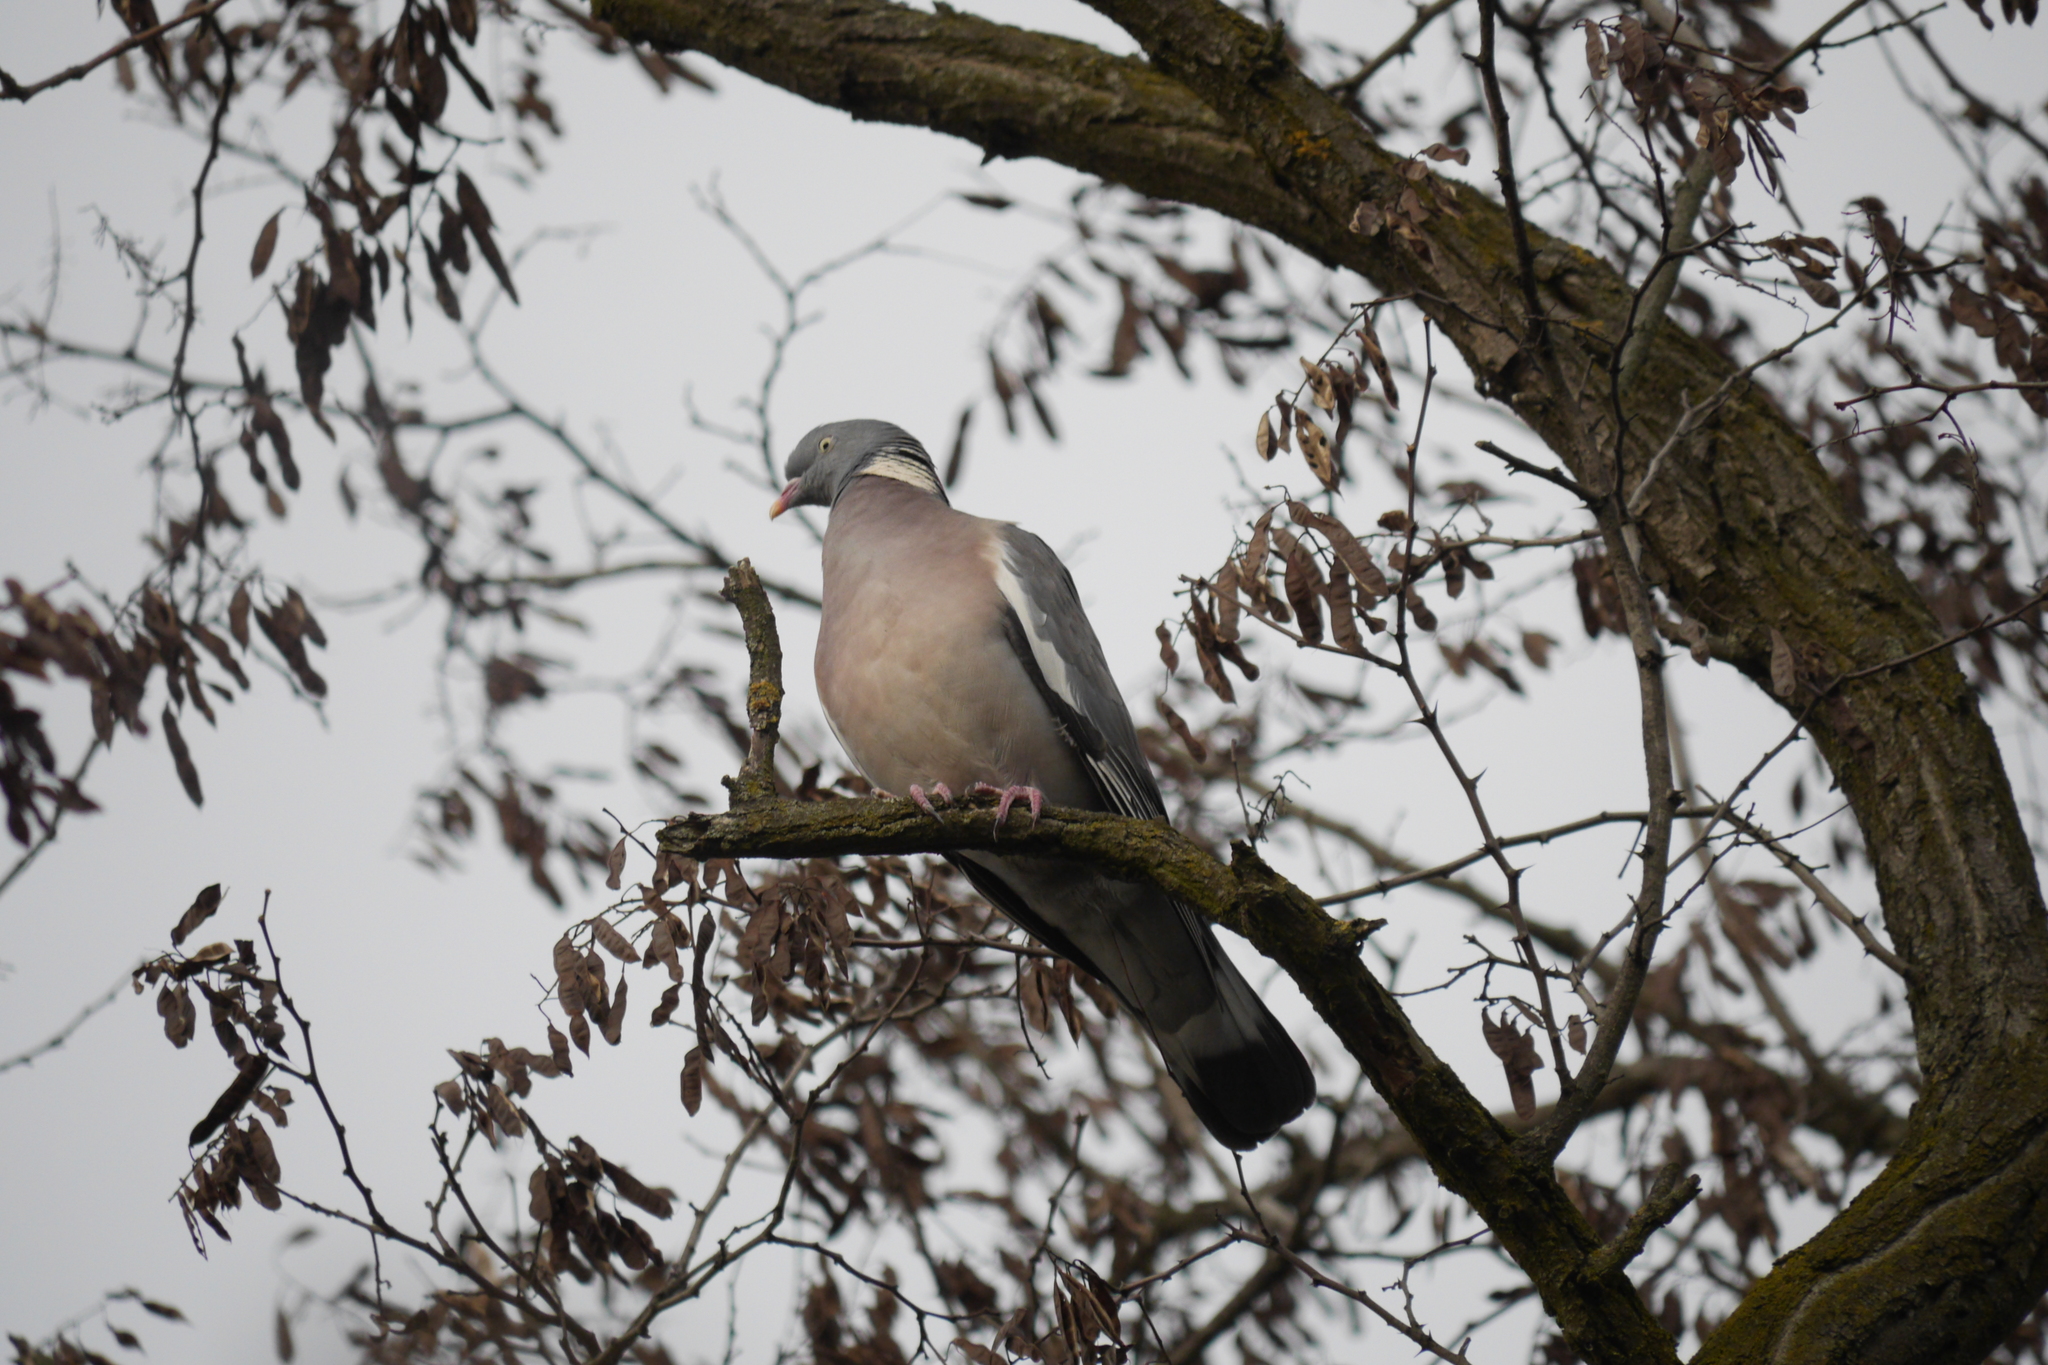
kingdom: Animalia
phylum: Chordata
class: Aves
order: Columbiformes
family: Columbidae
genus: Columba
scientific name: Columba palumbus
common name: Common wood pigeon
